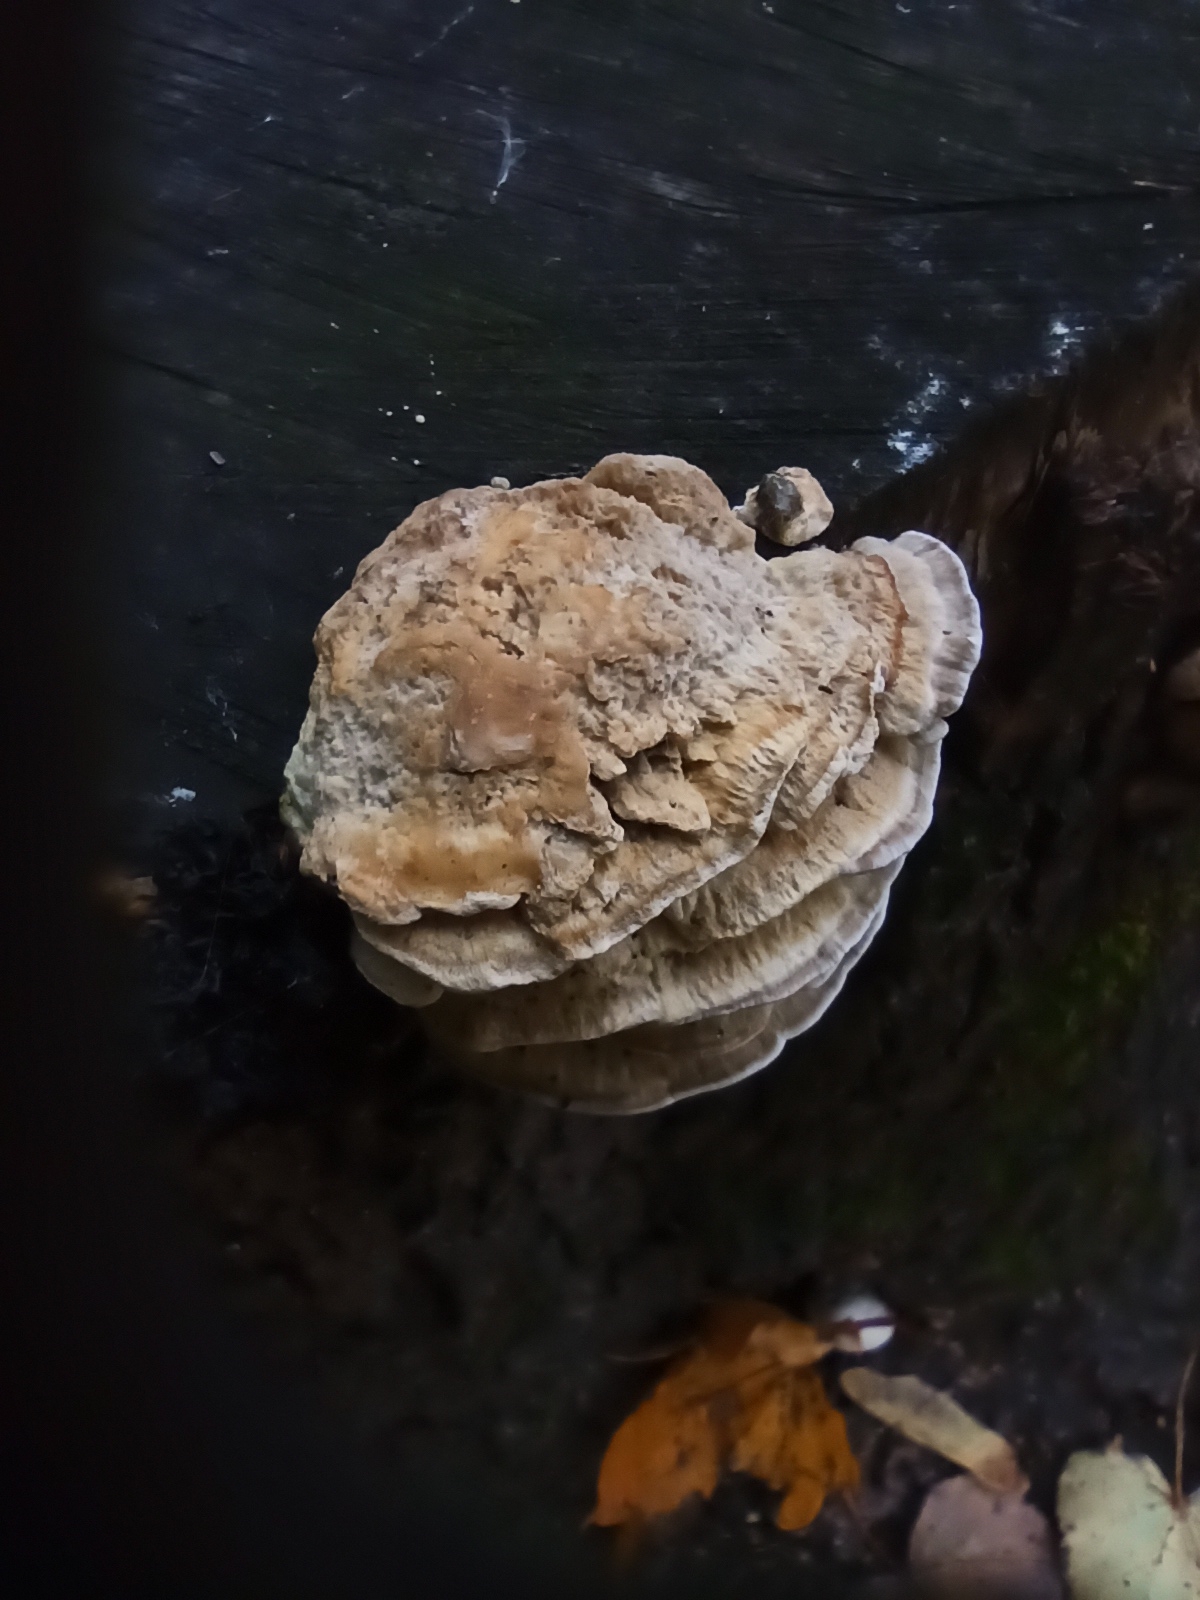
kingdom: Fungi
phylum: Basidiomycota
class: Agaricomycetes
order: Polyporales
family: Polyporaceae
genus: Trametes
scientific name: Trametes ochracea
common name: Ochre bracket
